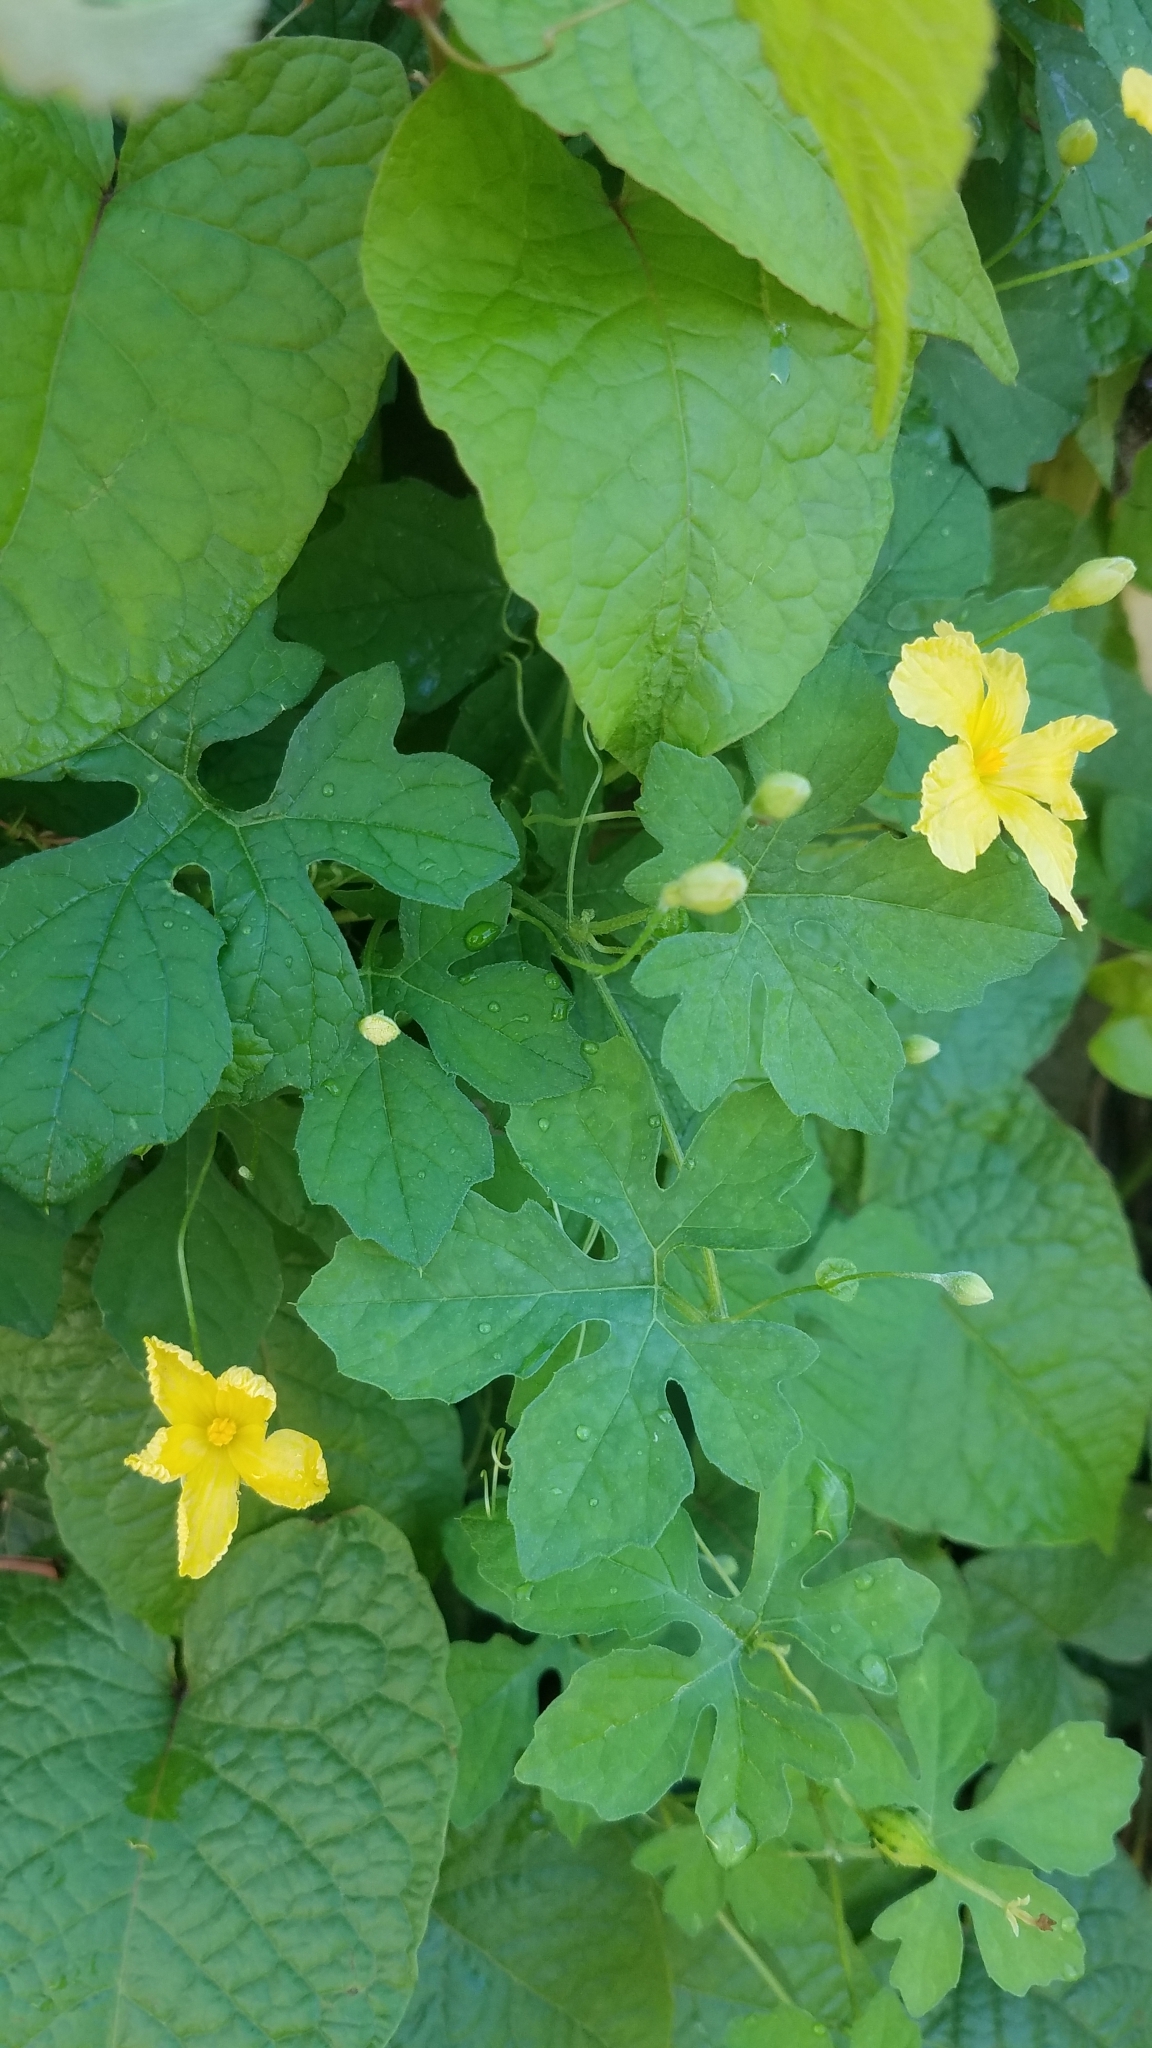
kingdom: Plantae
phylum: Tracheophyta
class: Magnoliopsida
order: Cucurbitales
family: Cucurbitaceae
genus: Momordica
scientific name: Momordica charantia
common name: Balsampear
